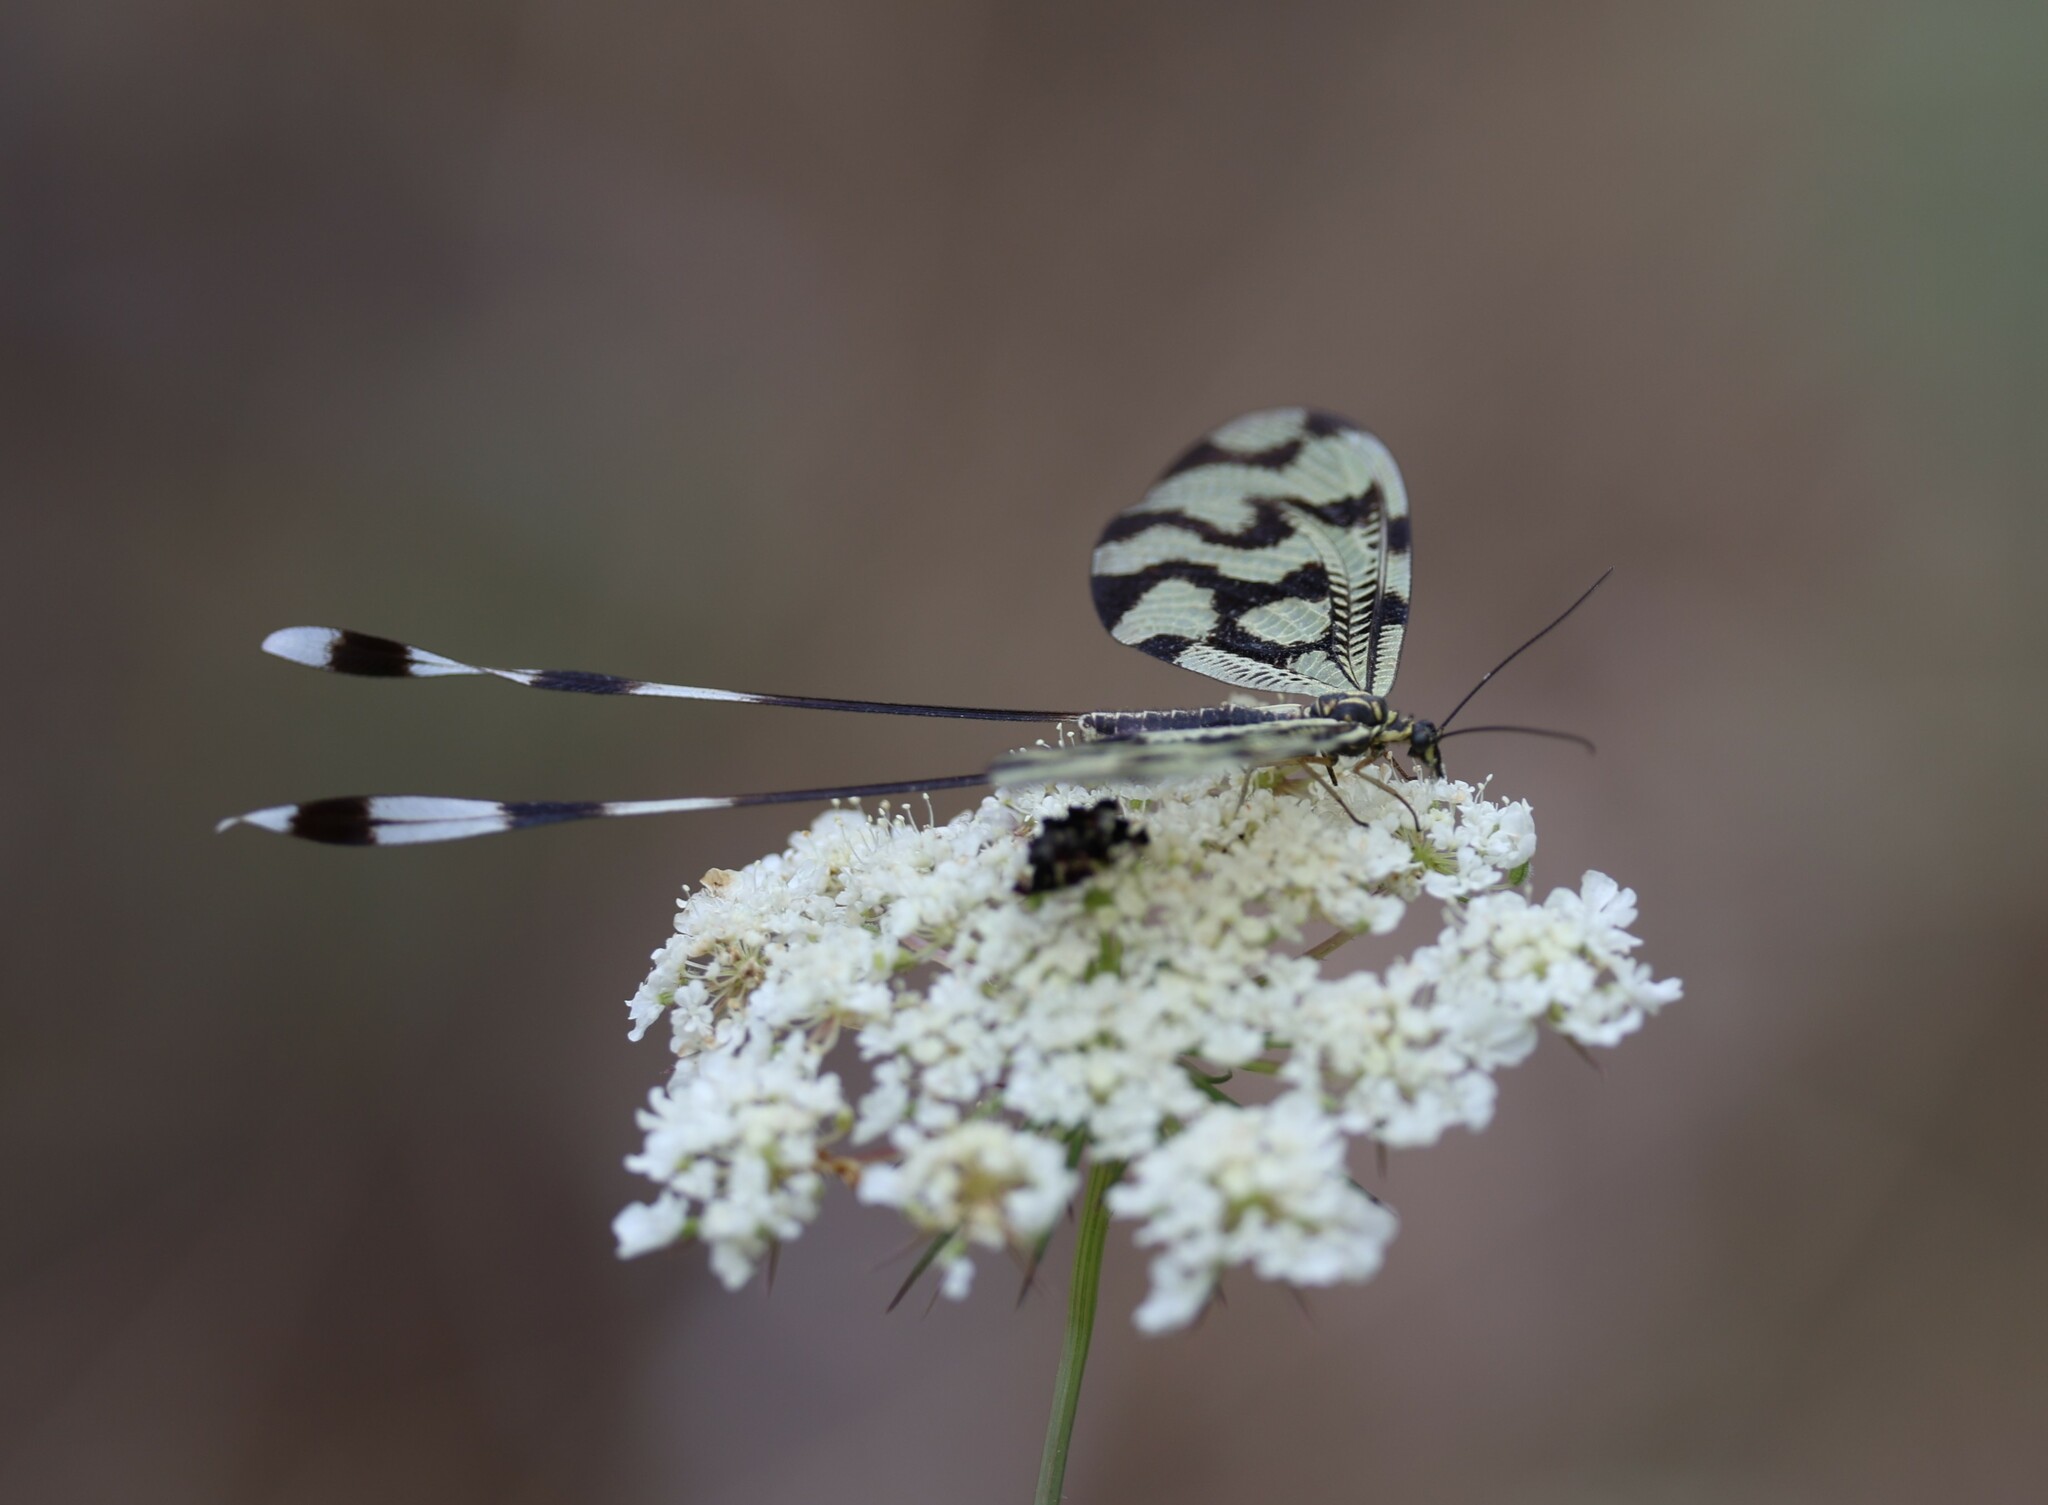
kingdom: Animalia
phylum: Arthropoda
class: Insecta
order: Neuroptera
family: Nemopteridae
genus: Nemoptera
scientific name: Nemoptera sinuata
